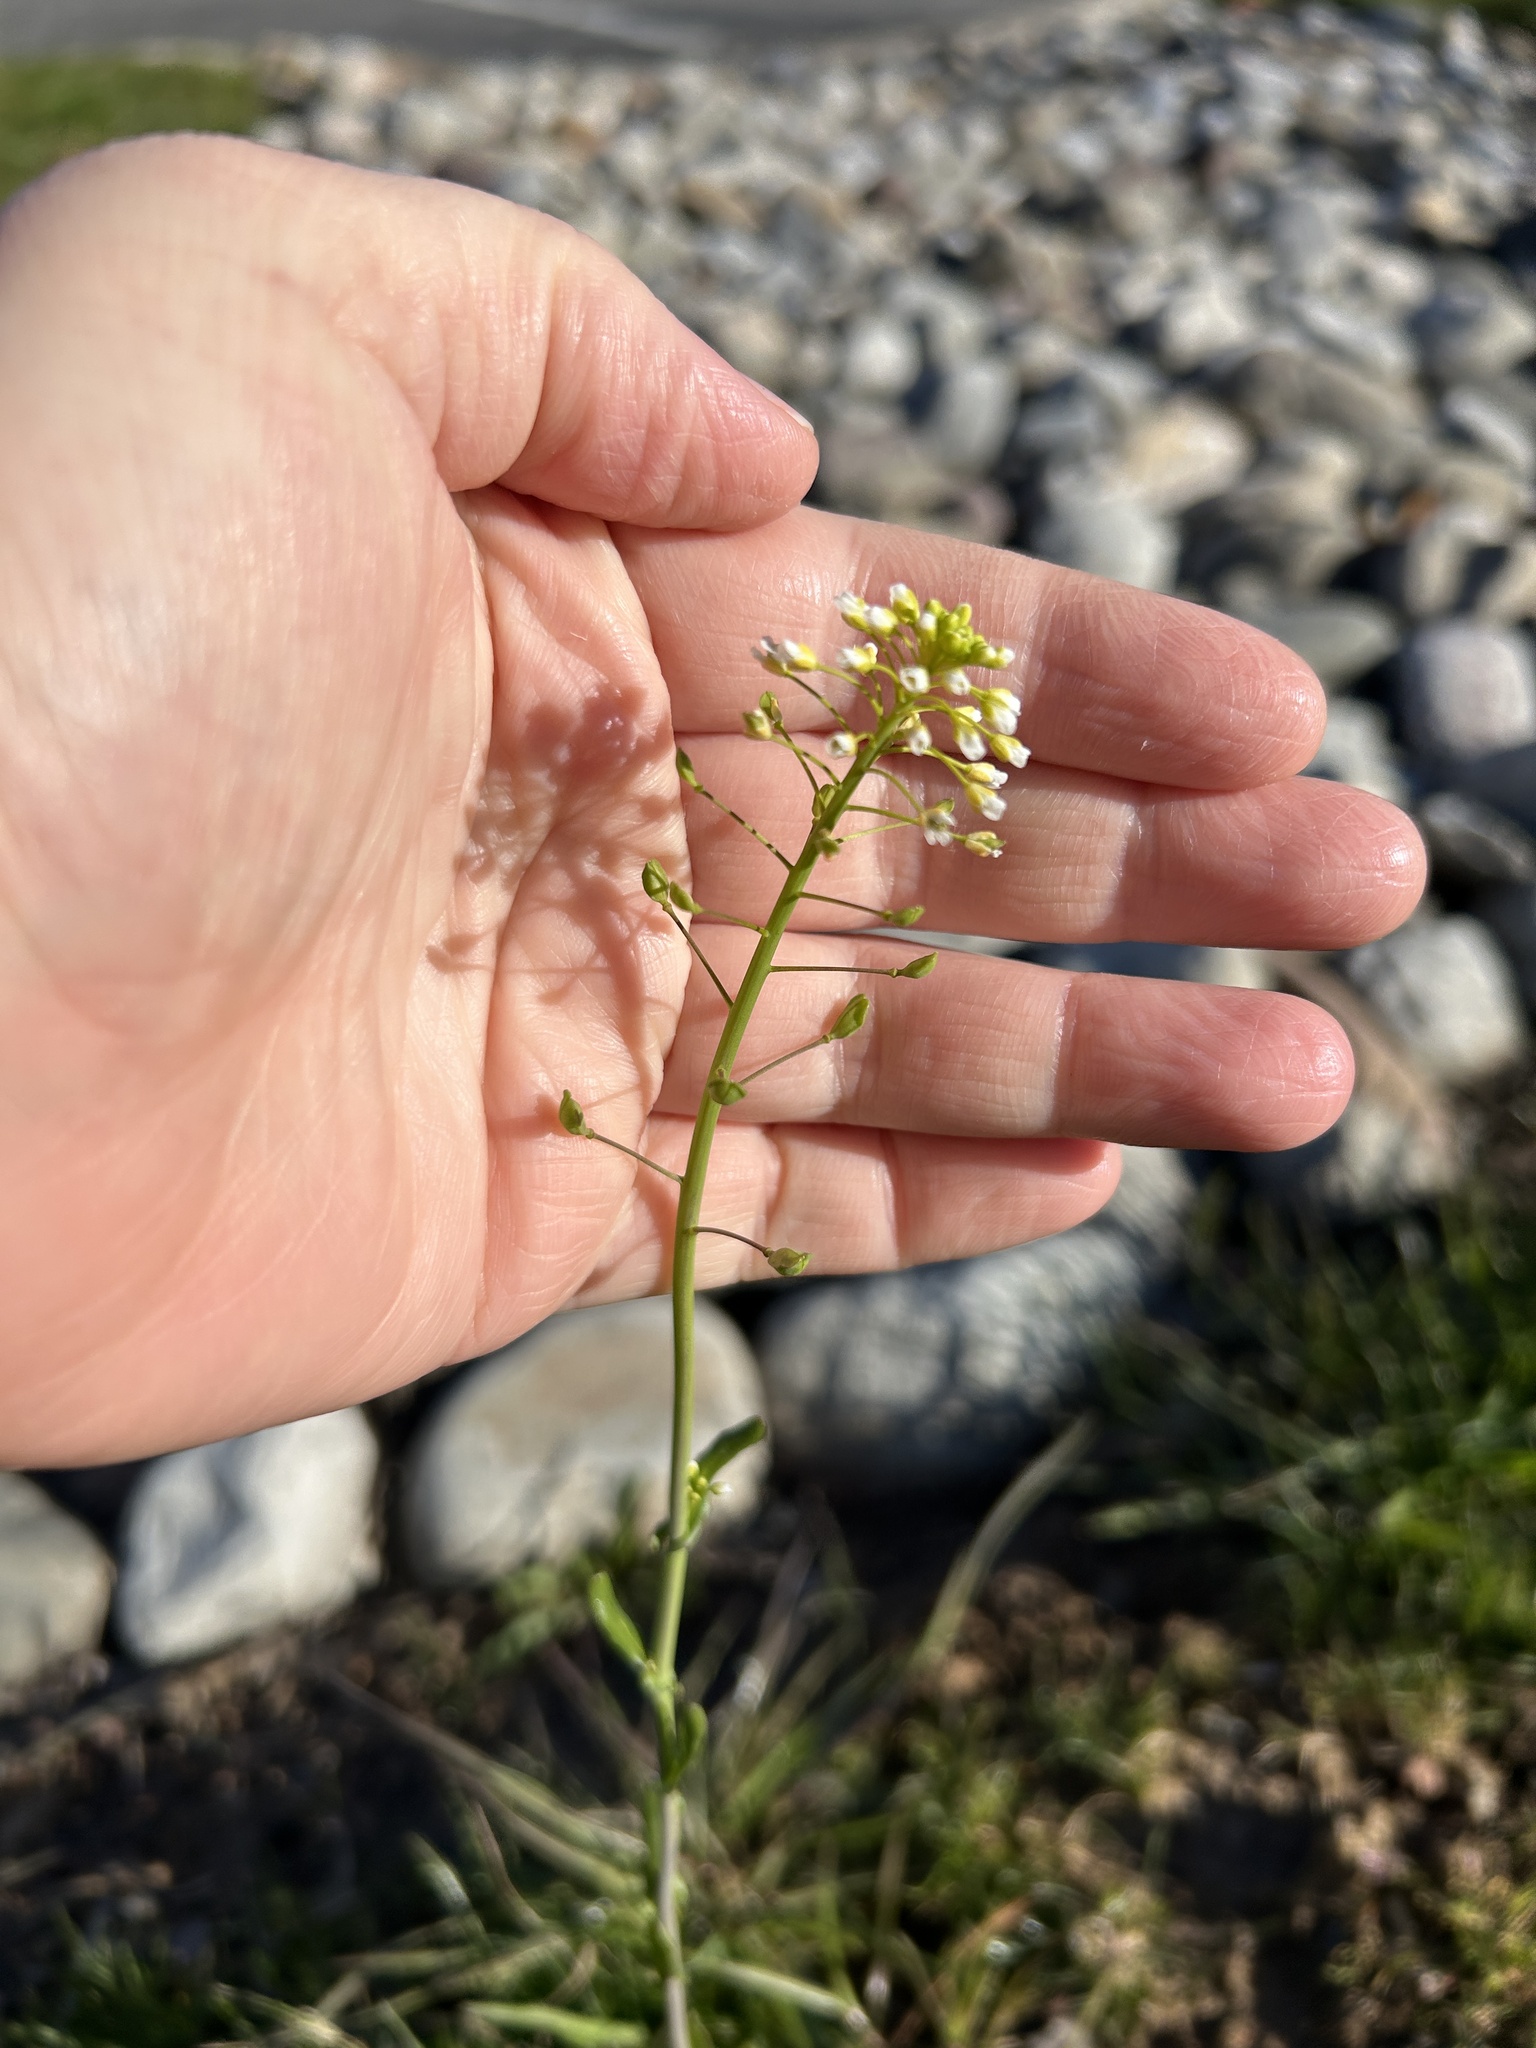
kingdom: Plantae
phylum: Tracheophyta
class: Magnoliopsida
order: Brassicales
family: Brassicaceae
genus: Mummenhoffia
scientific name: Mummenhoffia alliacea
